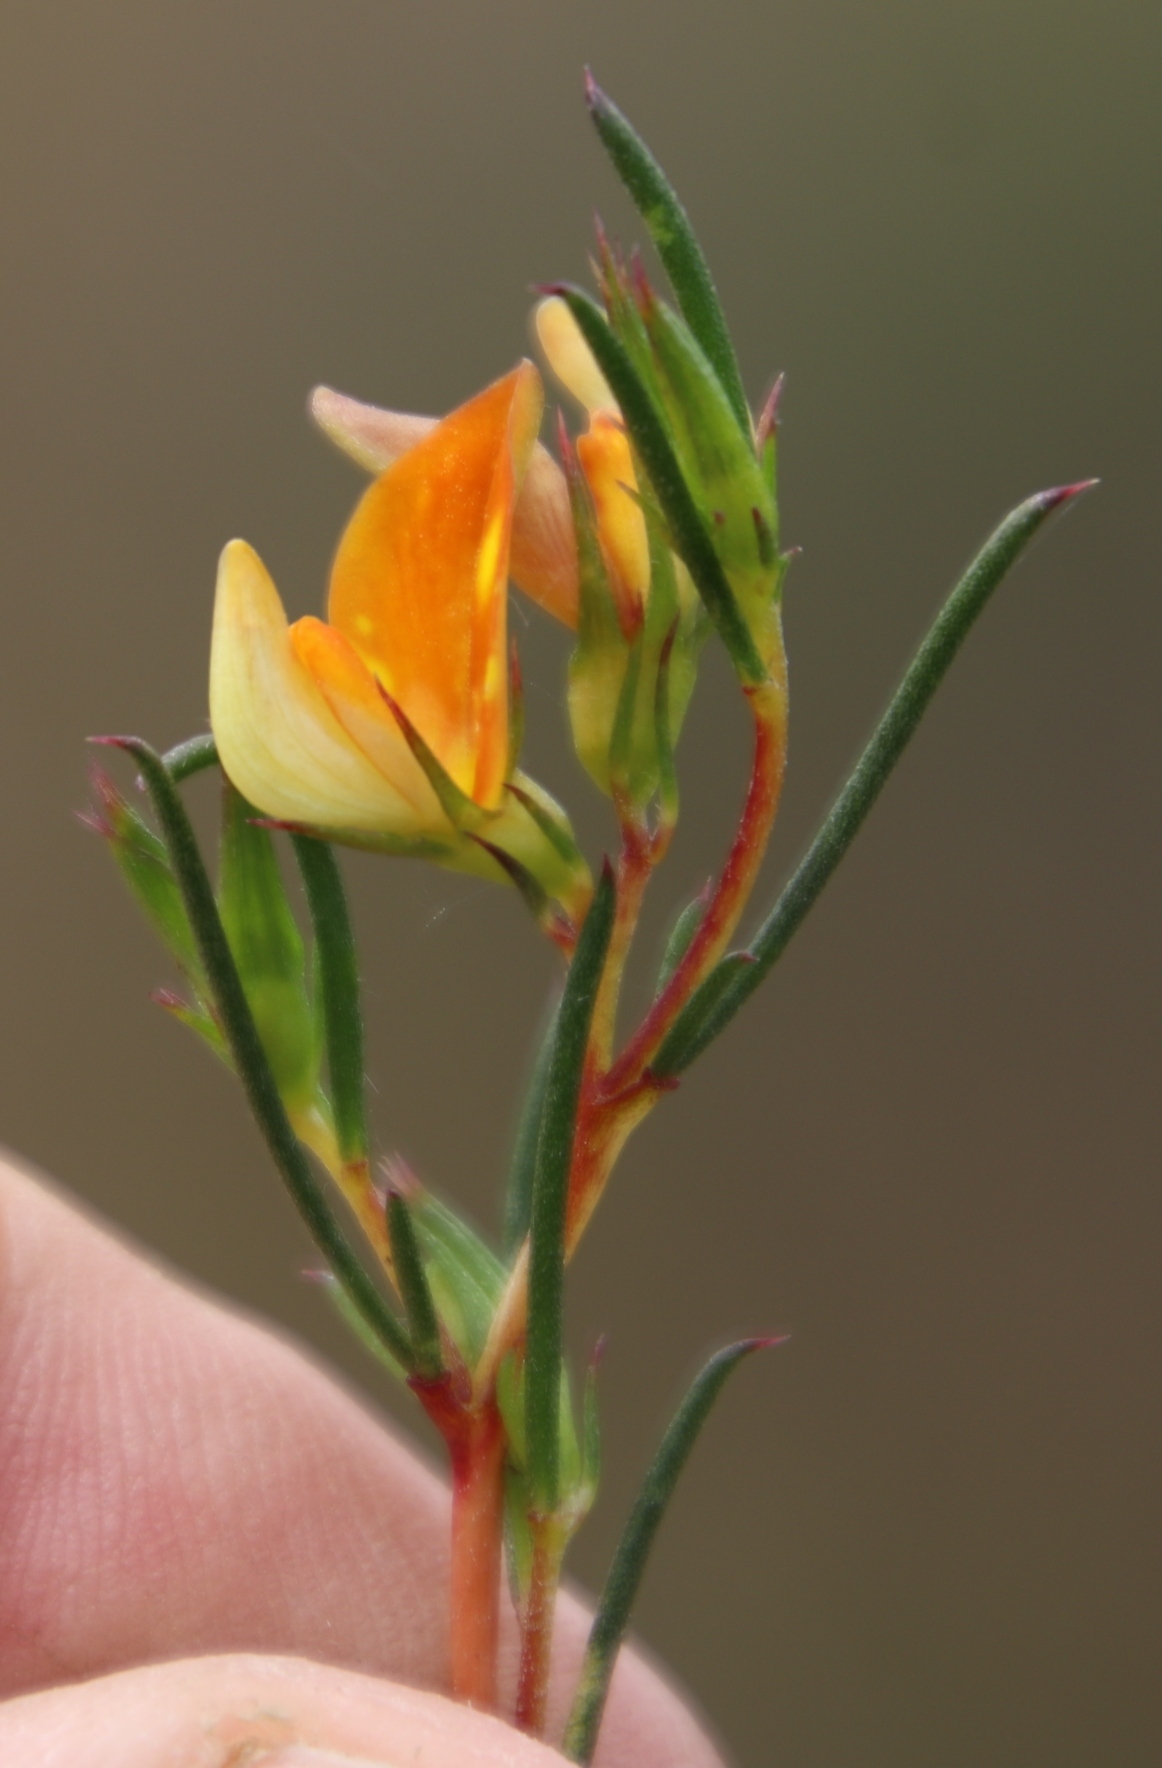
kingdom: Plantae
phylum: Tracheophyta
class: Magnoliopsida
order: Fabales
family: Fabaceae
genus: Aspalathus
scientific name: Aspalathus abietina
